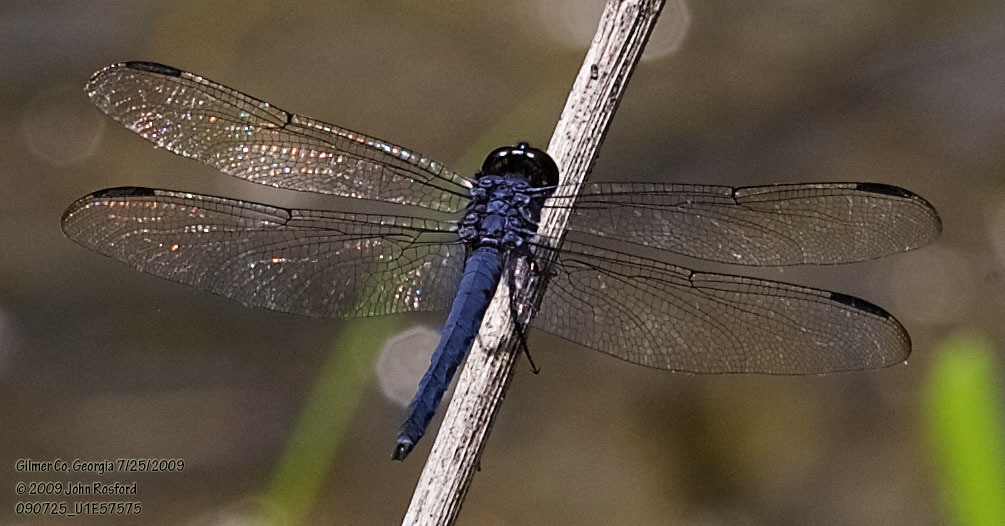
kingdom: Animalia
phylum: Arthropoda
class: Insecta
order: Odonata
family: Libellulidae
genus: Libellula
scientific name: Libellula incesta
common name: Slaty skimmer
